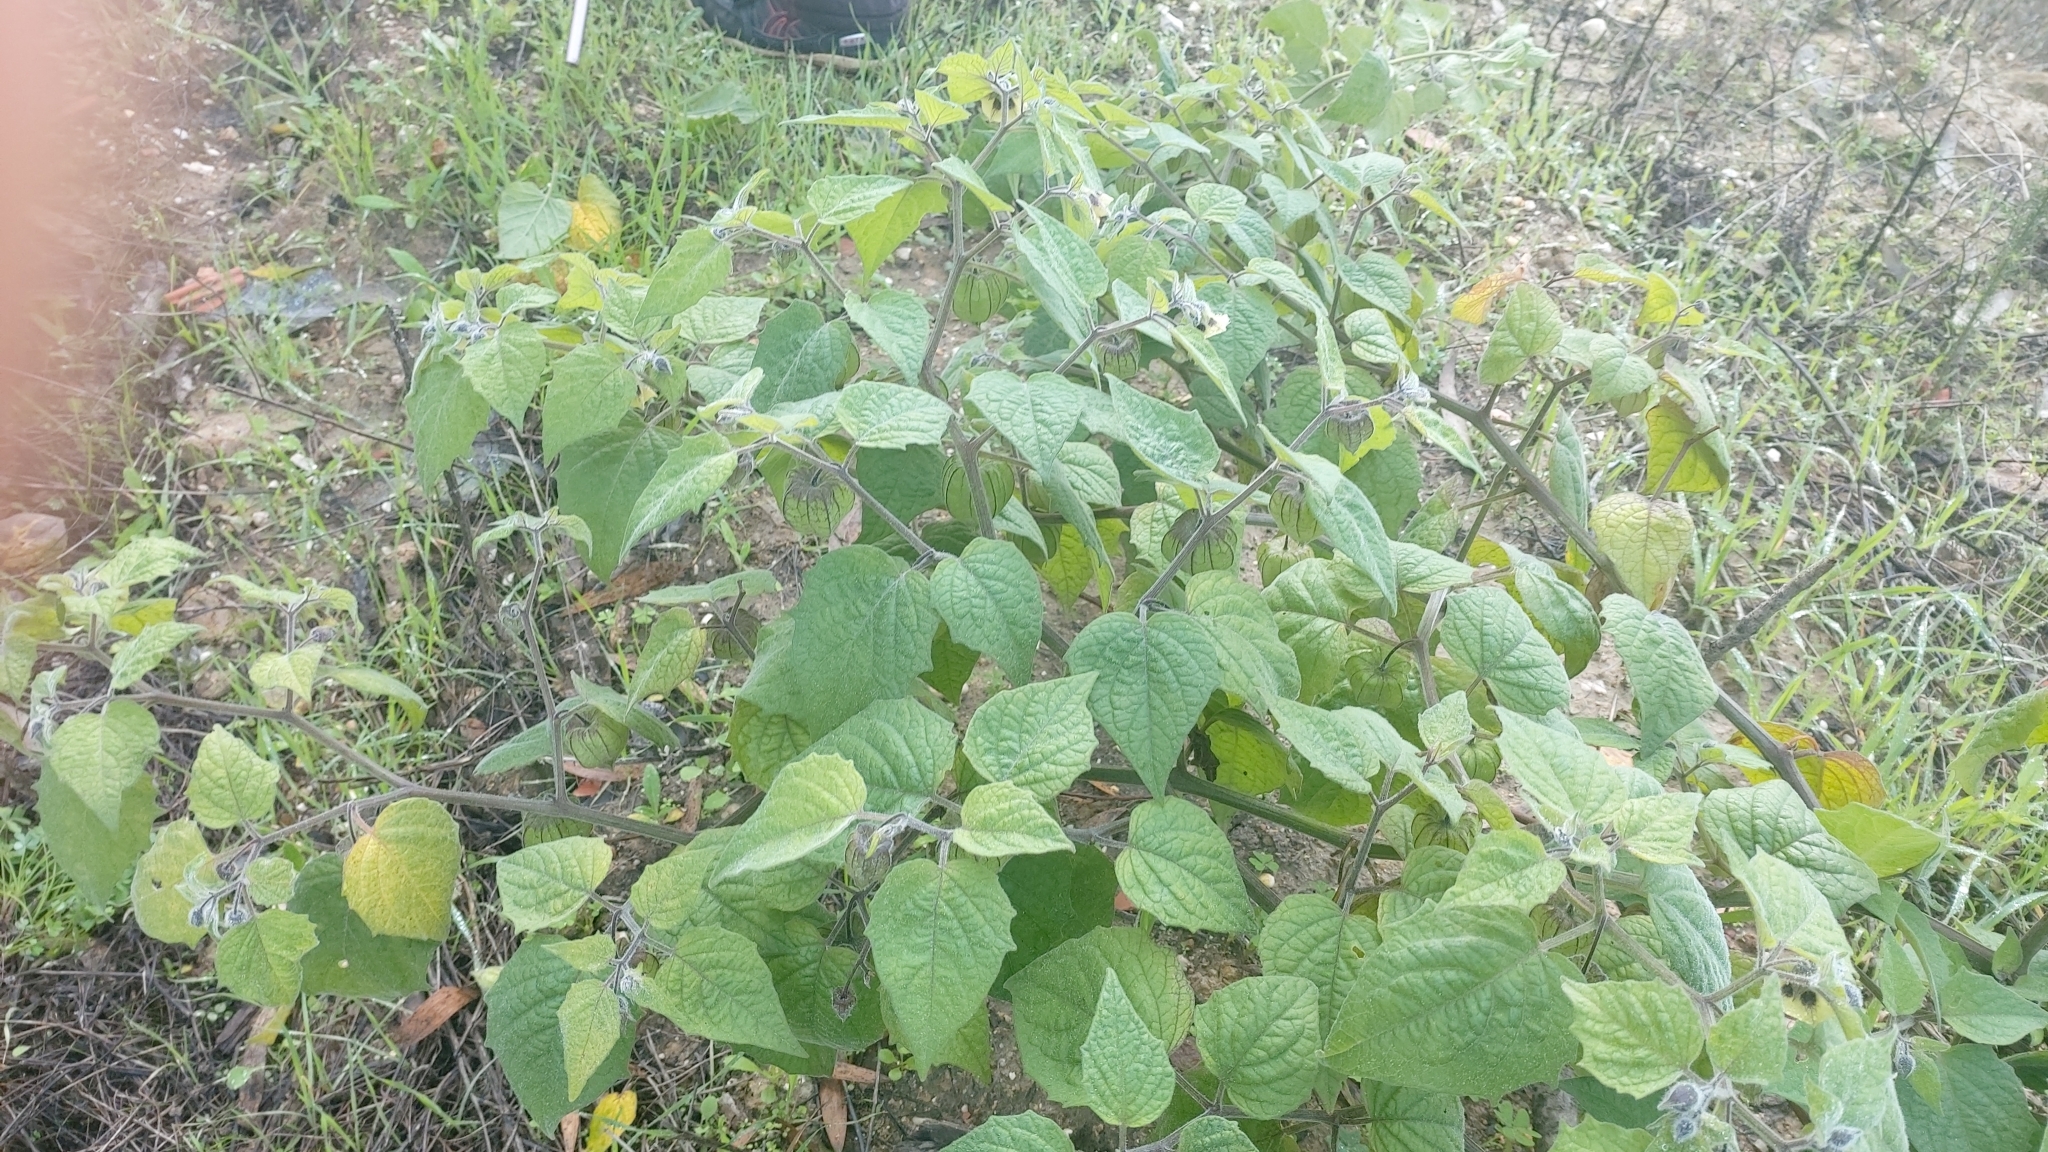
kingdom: Plantae
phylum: Tracheophyta
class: Magnoliopsida
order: Solanales
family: Solanaceae
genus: Physalis
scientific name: Physalis peruviana
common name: Cape-gooseberry
